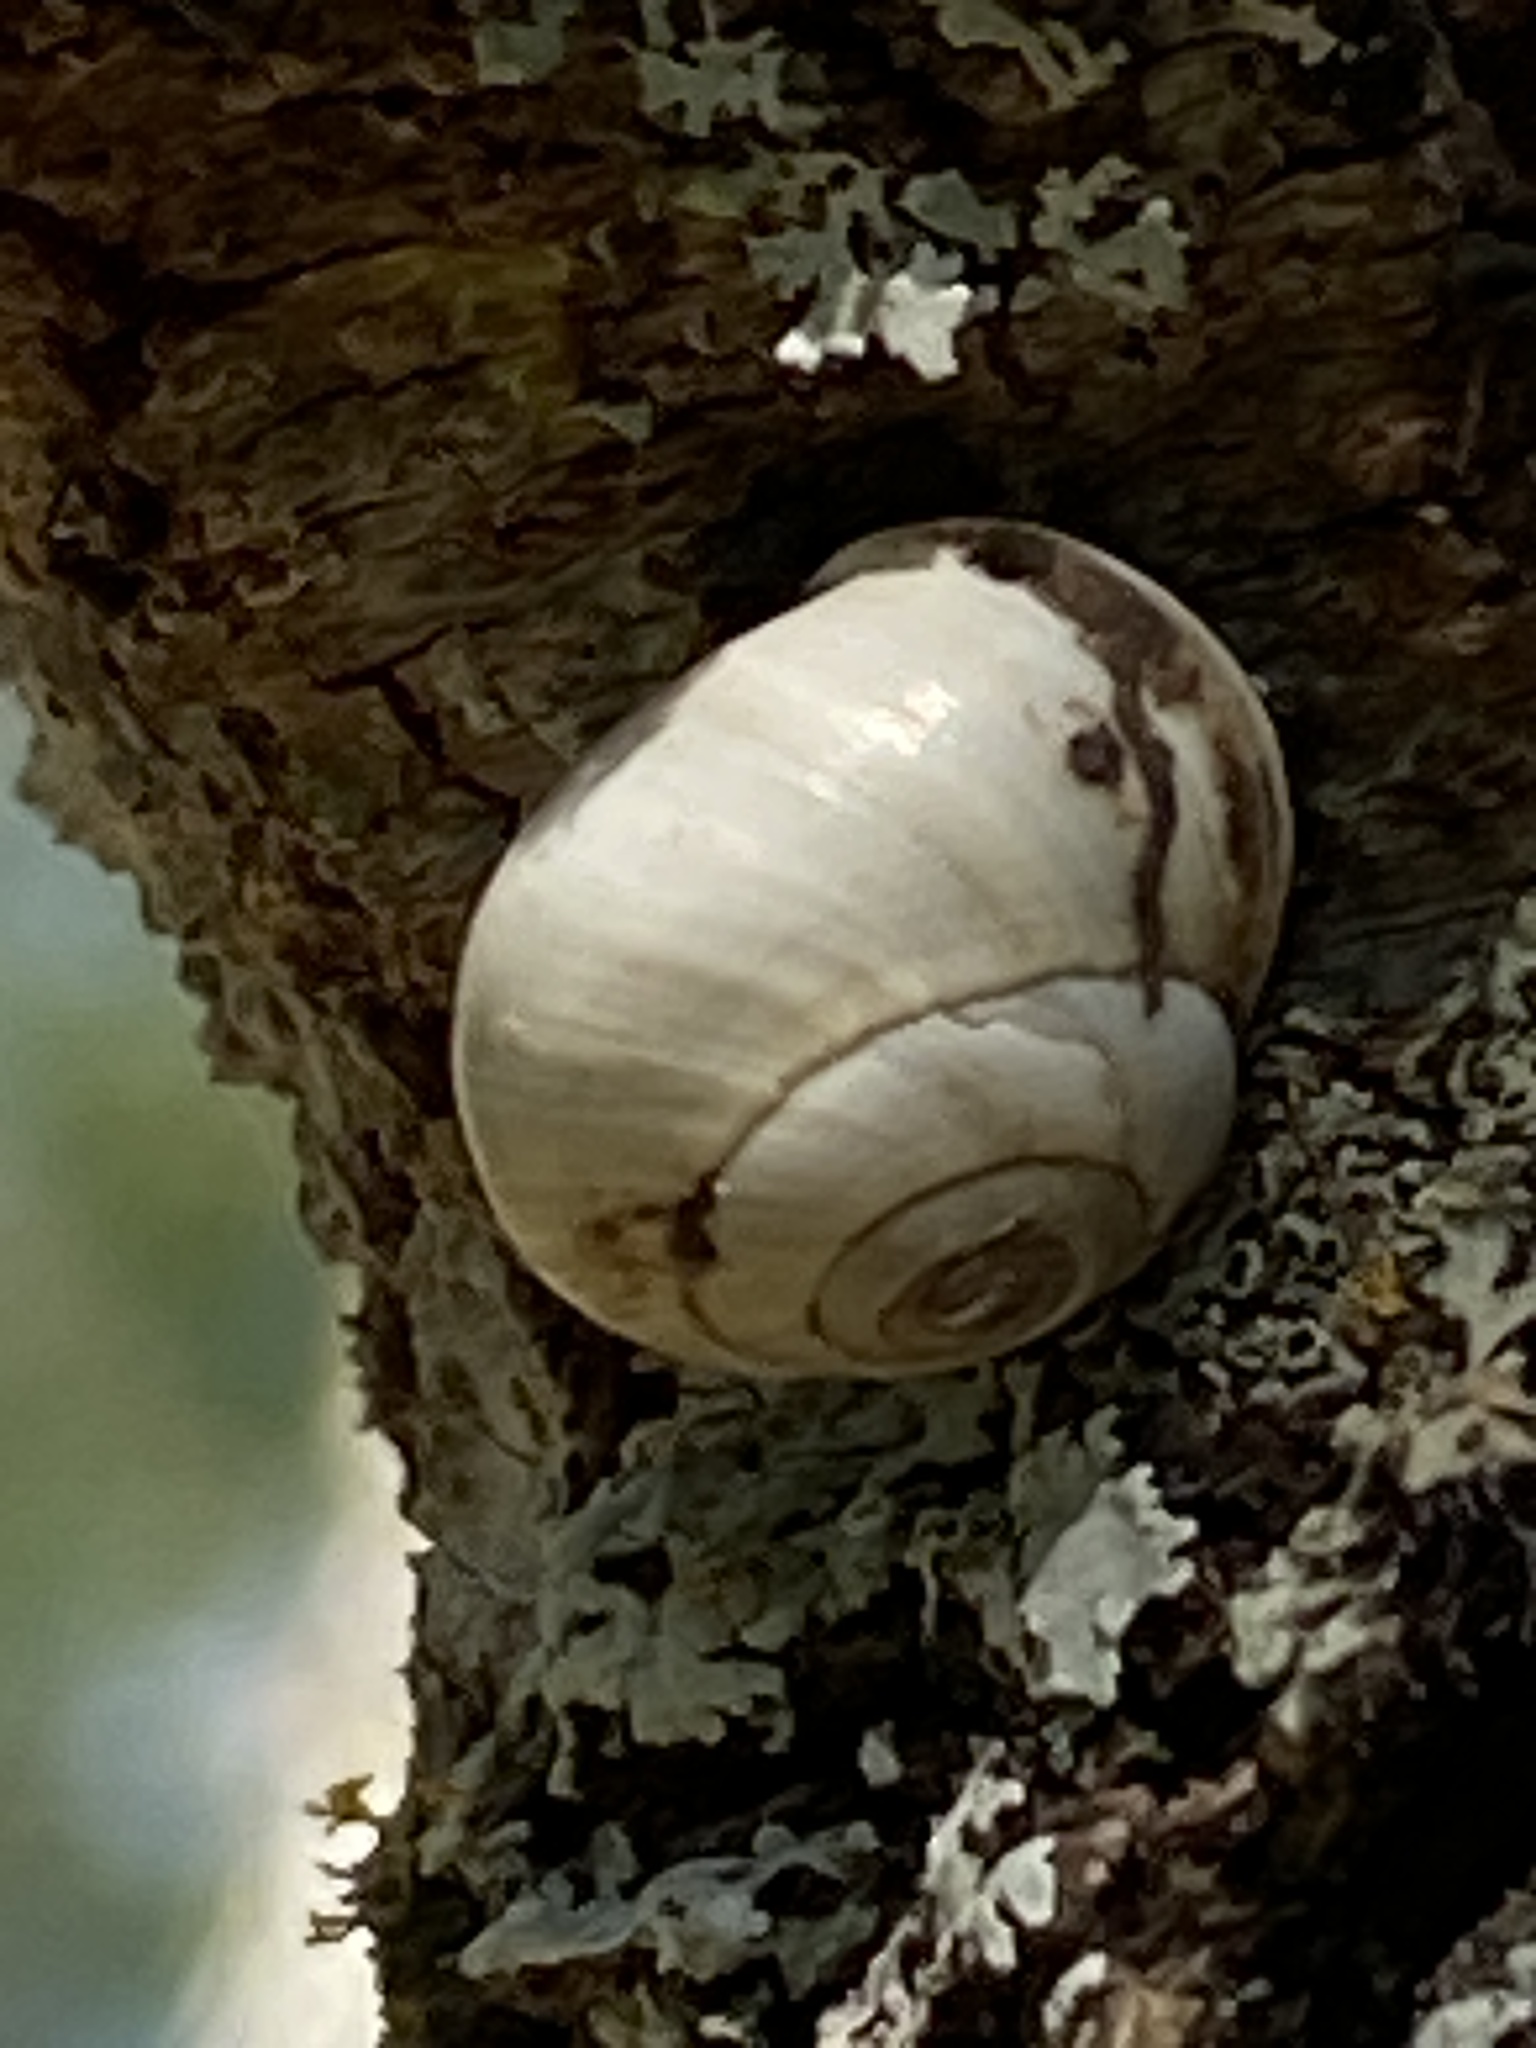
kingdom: Animalia
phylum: Mollusca
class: Gastropoda
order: Cycloneritida
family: Helicinidae
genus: Helicina
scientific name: Helicina orbiculata
